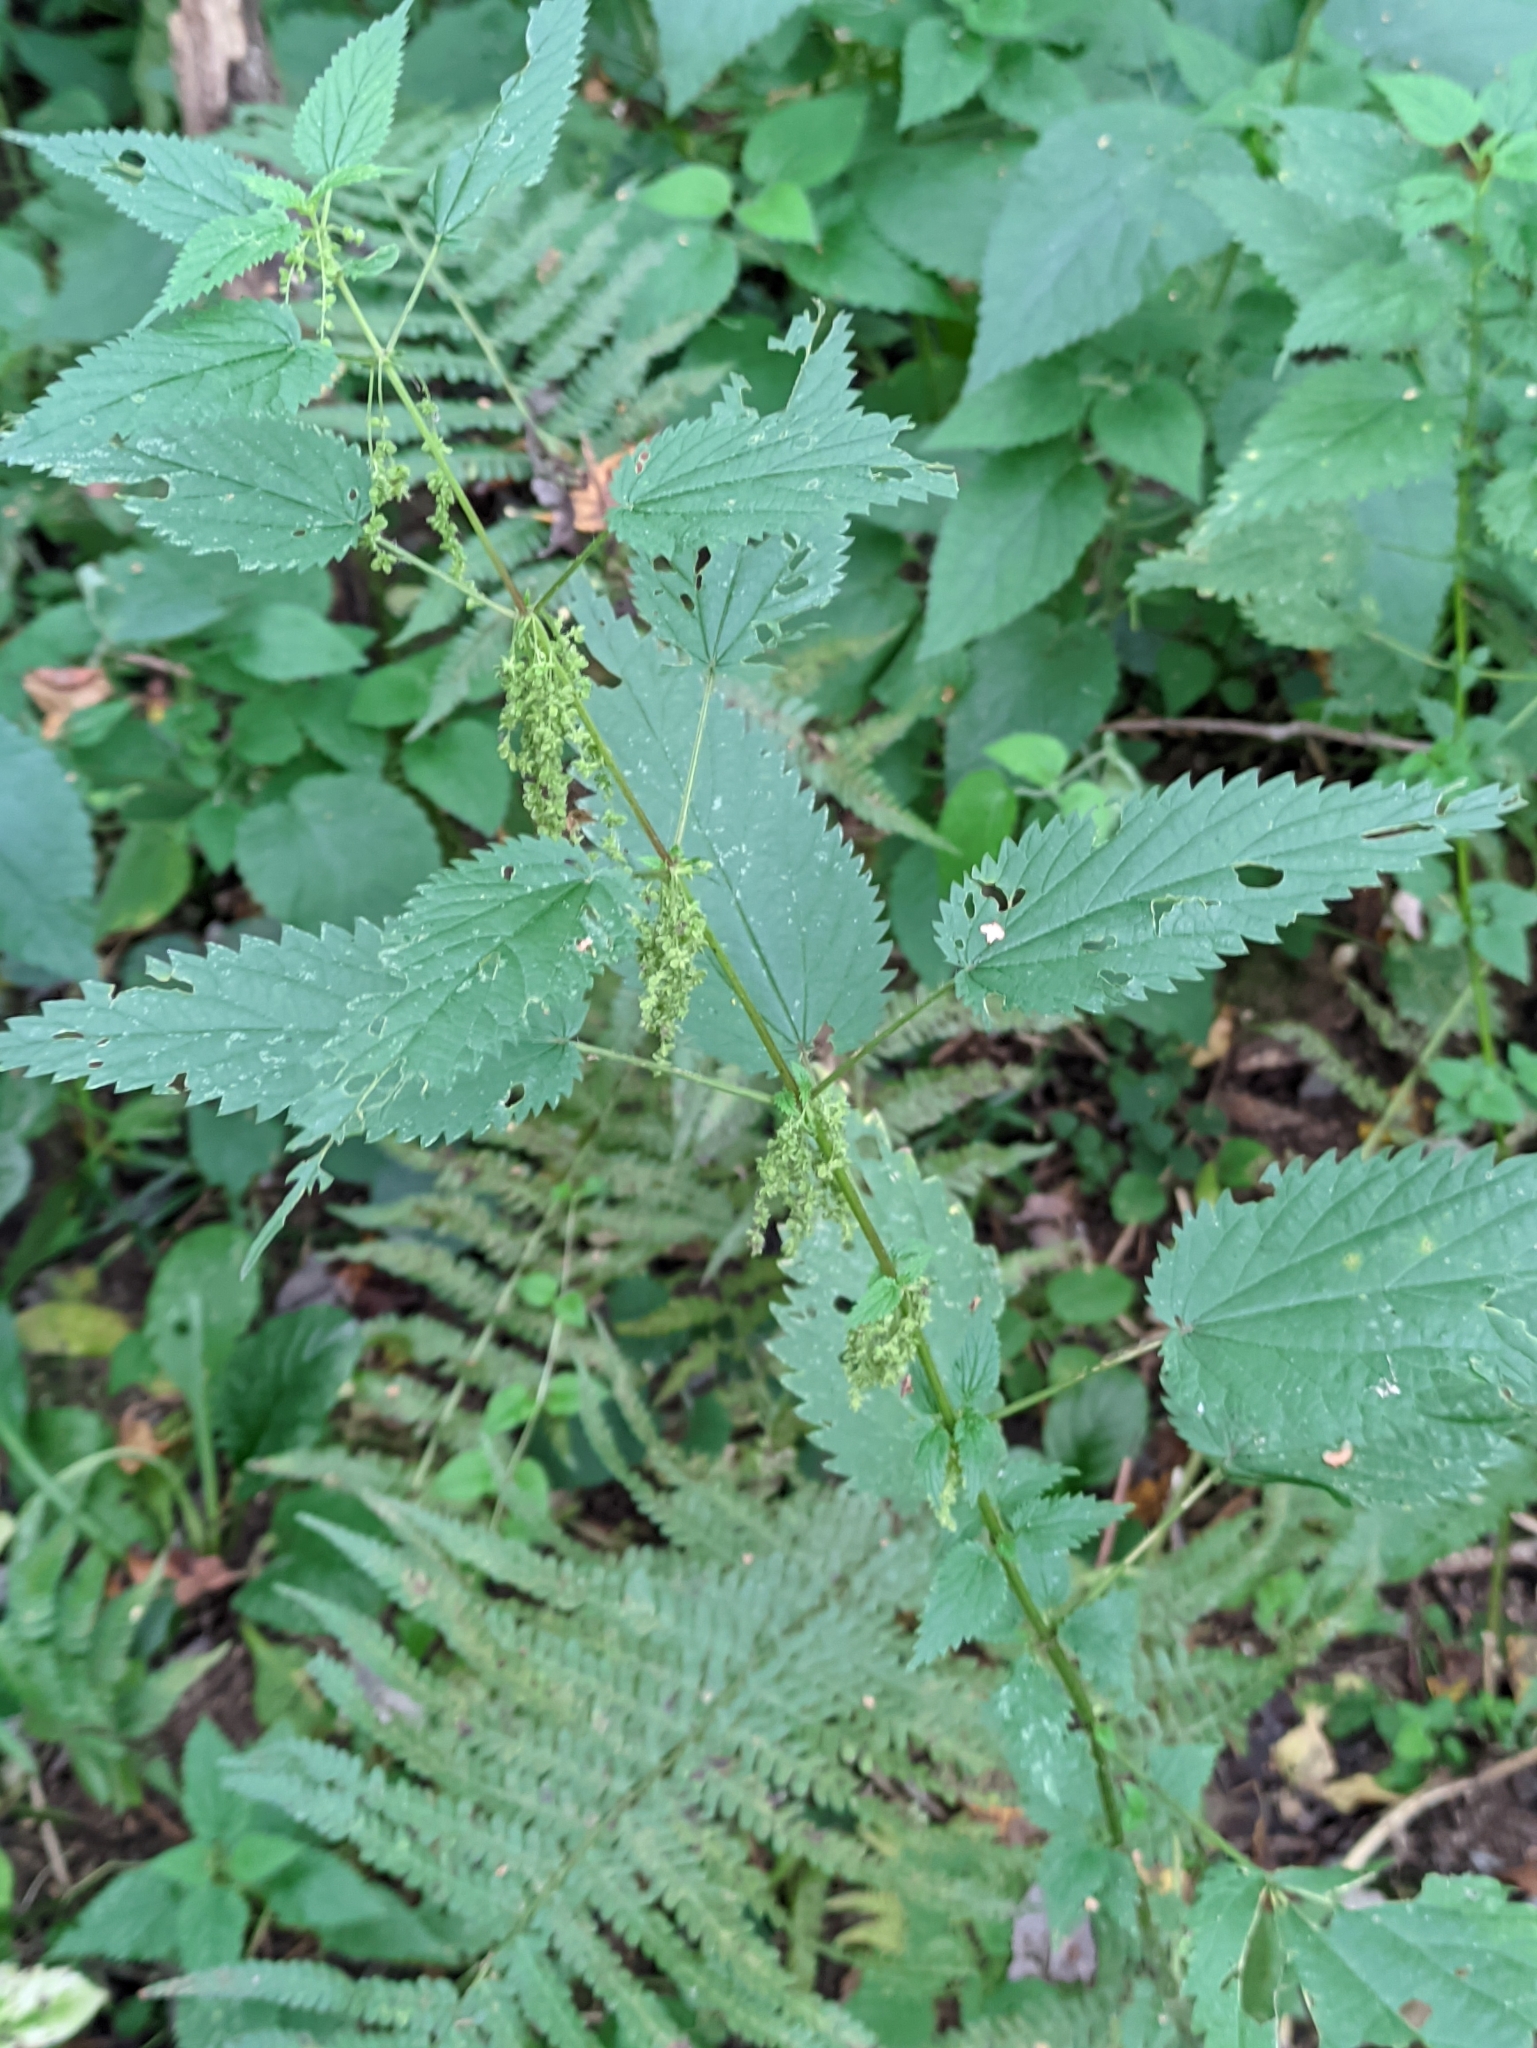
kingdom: Plantae
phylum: Tracheophyta
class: Magnoliopsida
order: Rosales
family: Urticaceae
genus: Urtica
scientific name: Urtica dioica
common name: Common nettle
